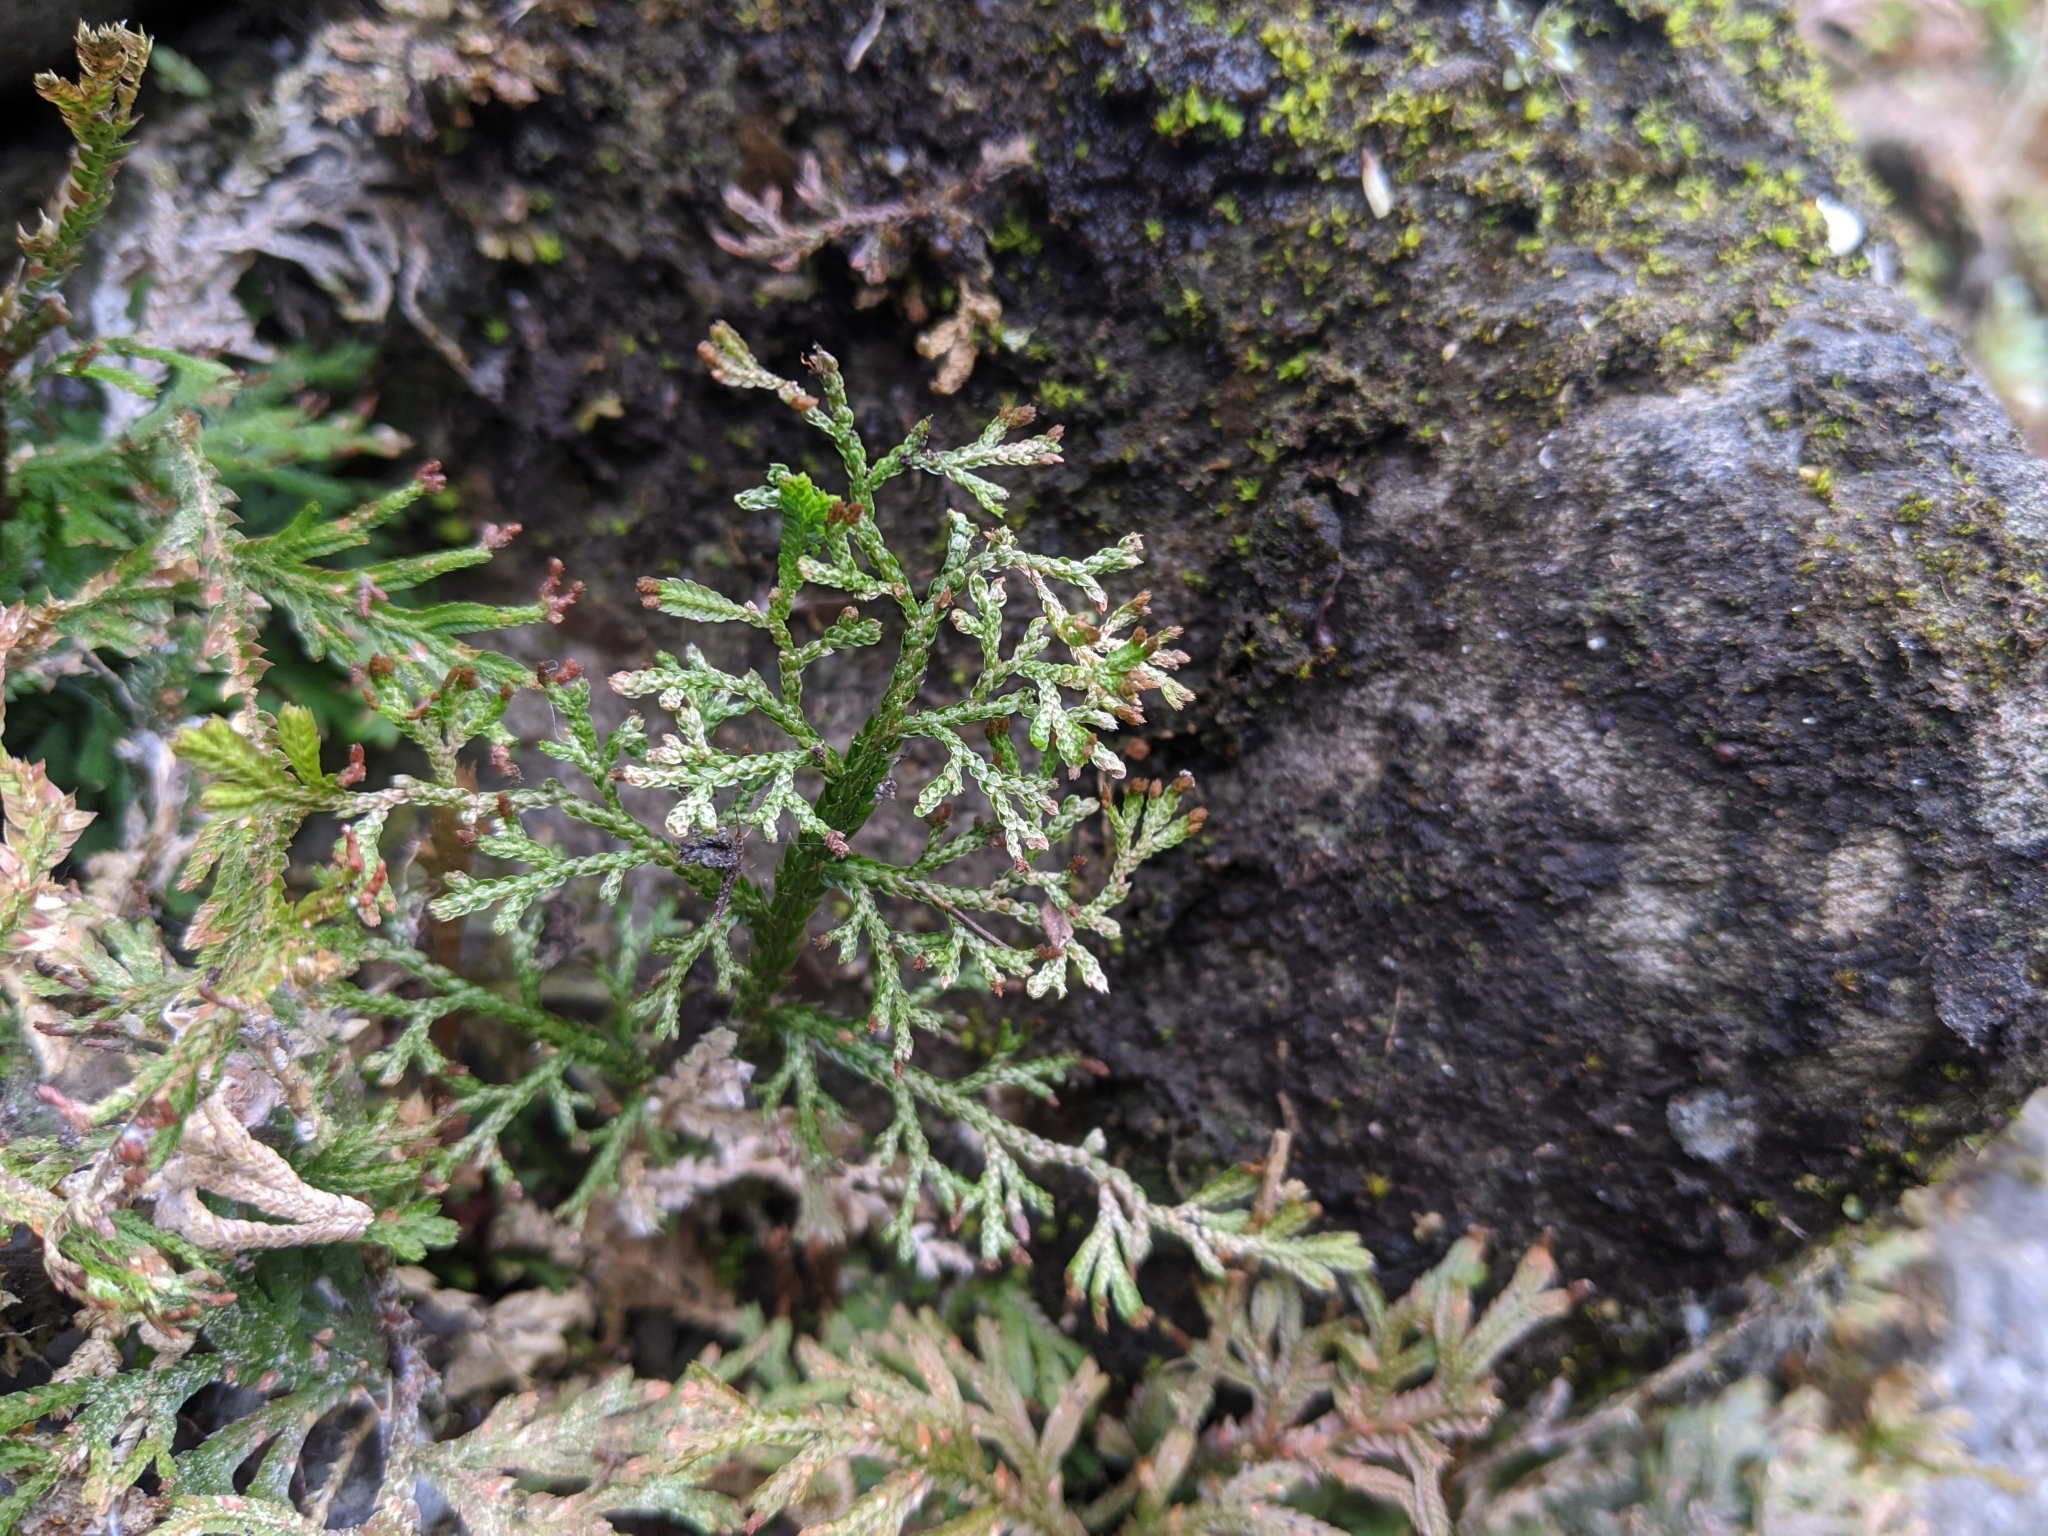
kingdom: Plantae
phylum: Tracheophyta
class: Lycopodiopsida
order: Selaginellales
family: Selaginellaceae
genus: Selaginella
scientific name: Selaginella moellendorffii
